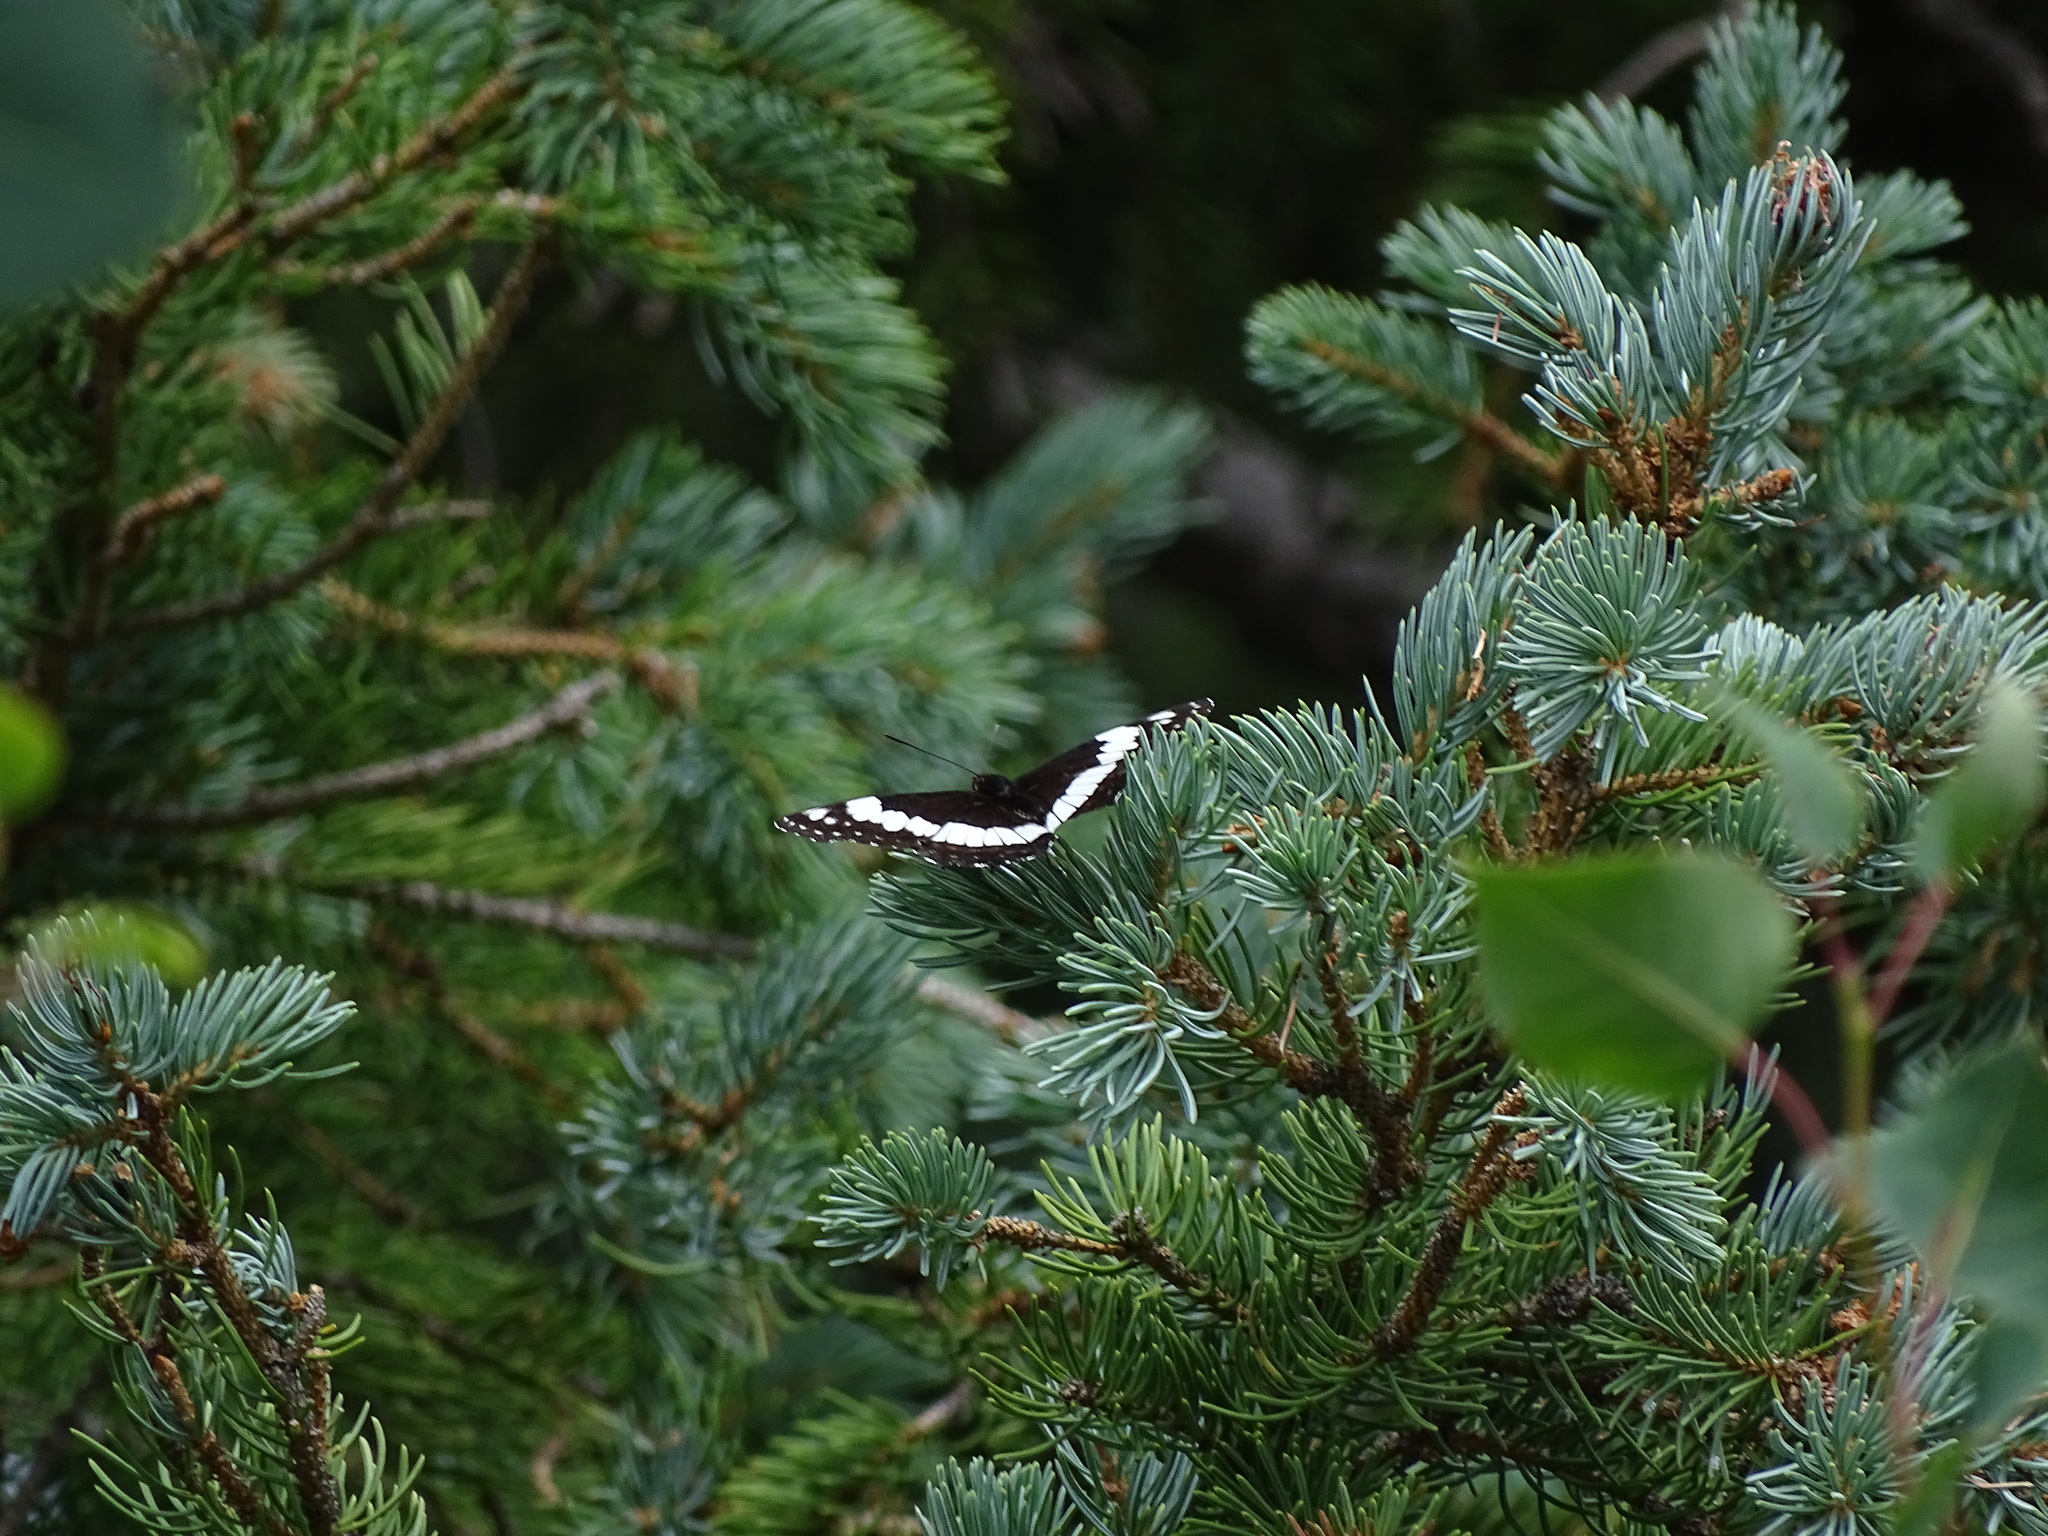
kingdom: Animalia
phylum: Arthropoda
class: Insecta
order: Lepidoptera
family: Nymphalidae
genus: Limenitis
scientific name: Limenitis weidemeyerii
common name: Weidemeyer's admiral
